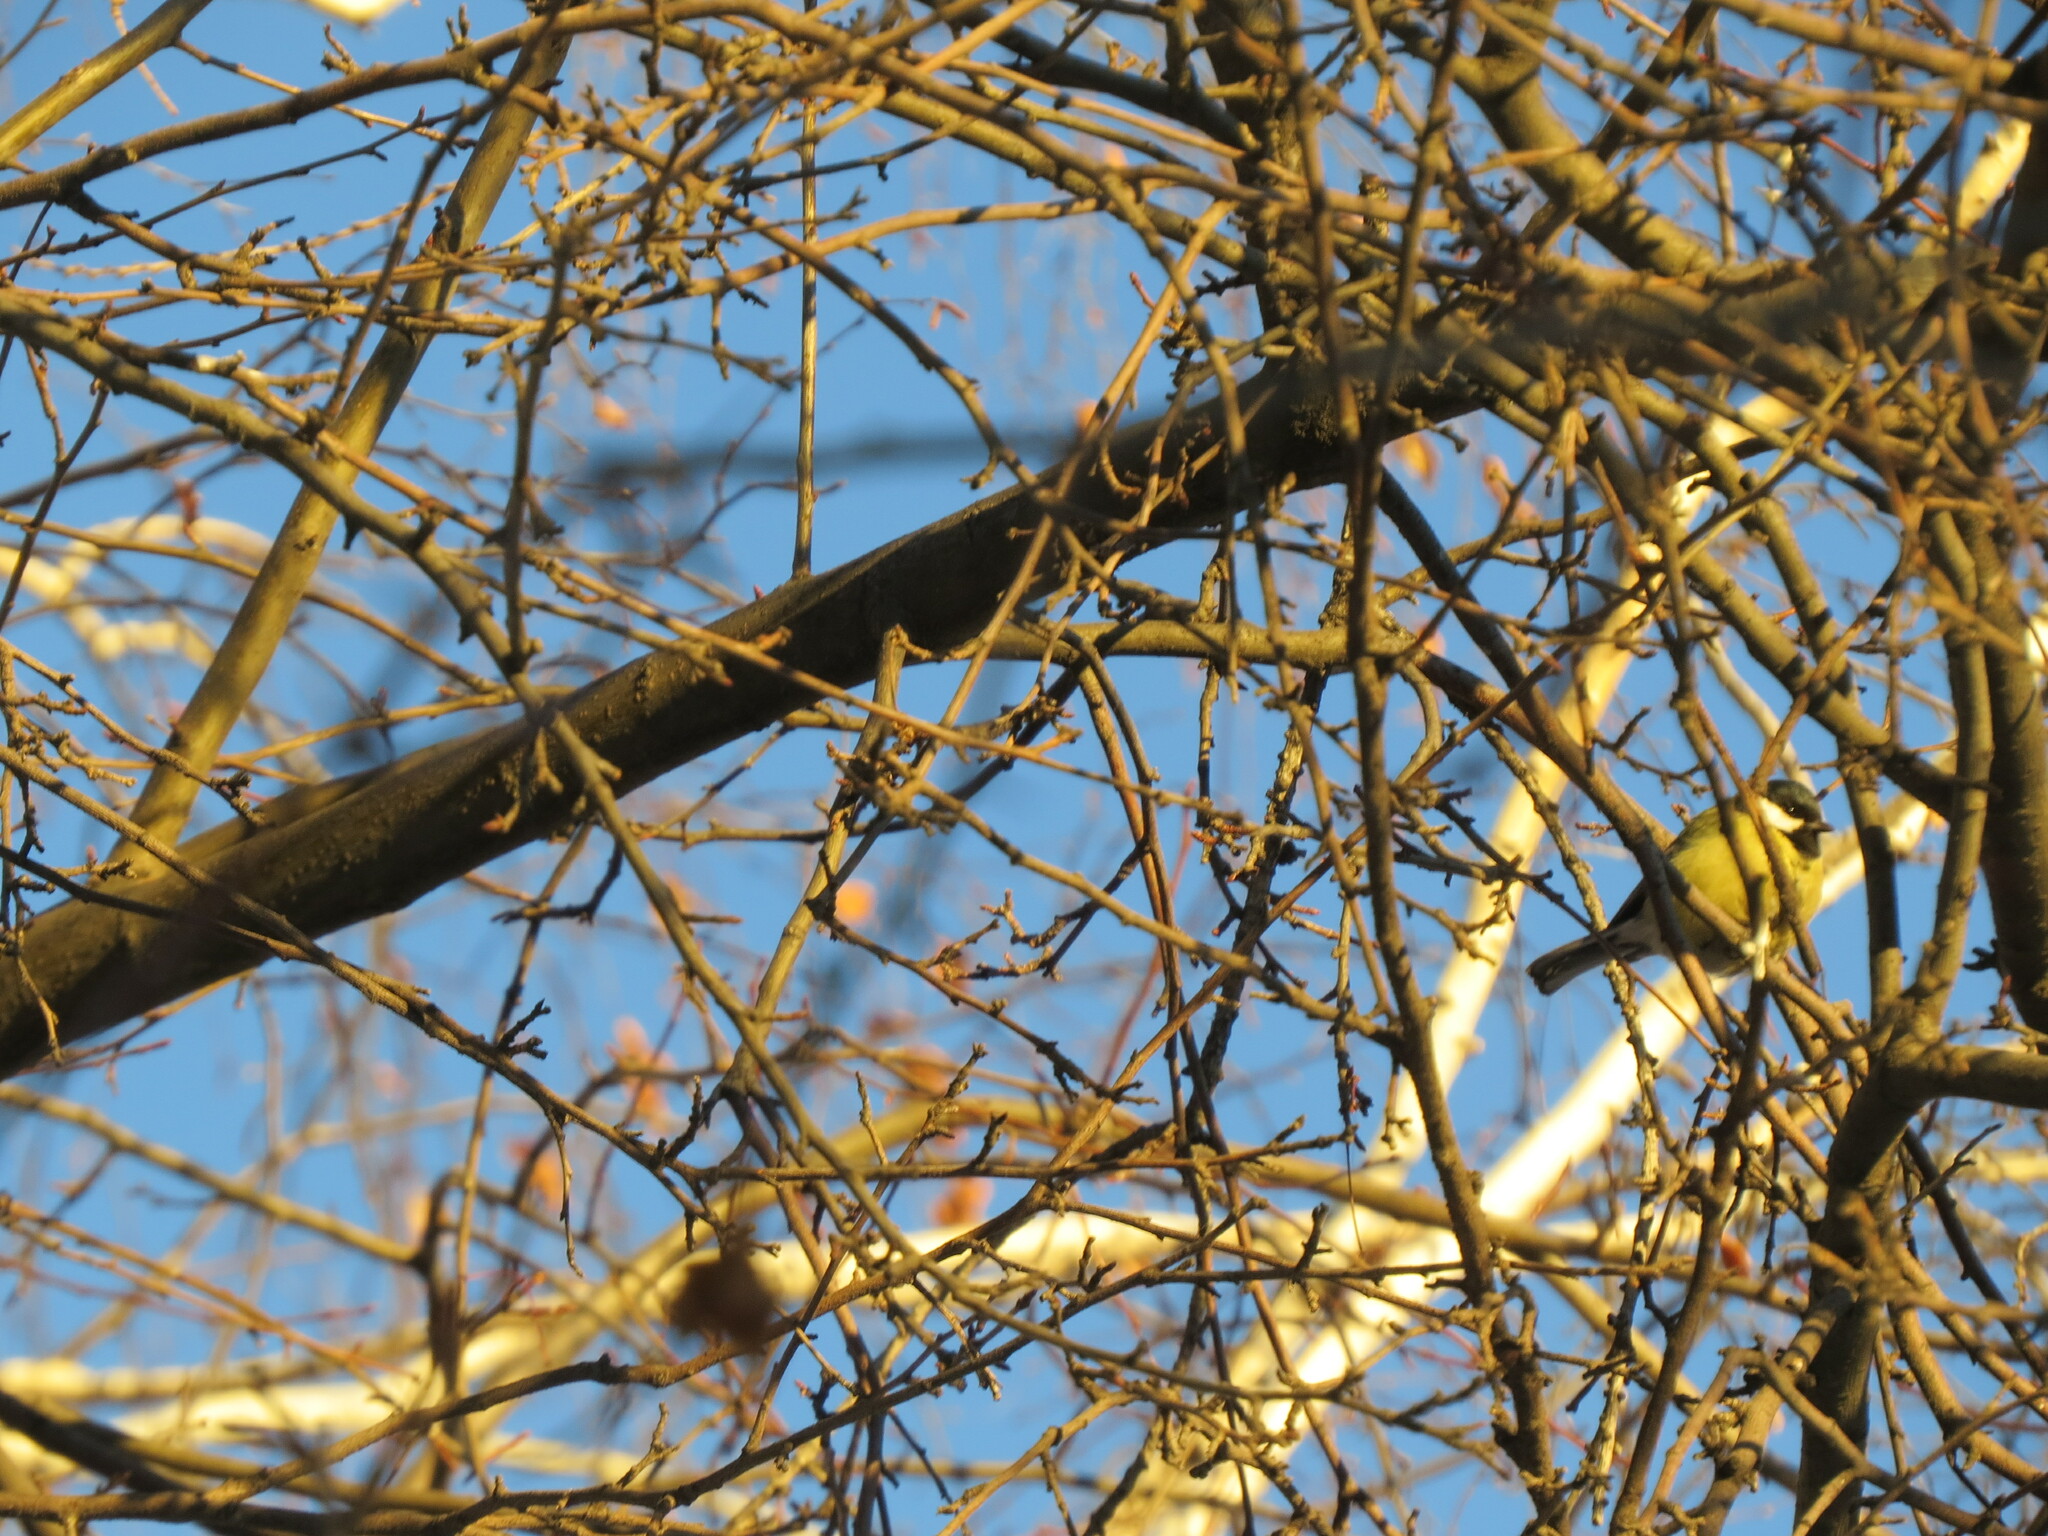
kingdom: Animalia
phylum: Chordata
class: Aves
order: Passeriformes
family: Paridae
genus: Parus
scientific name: Parus major
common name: Great tit
